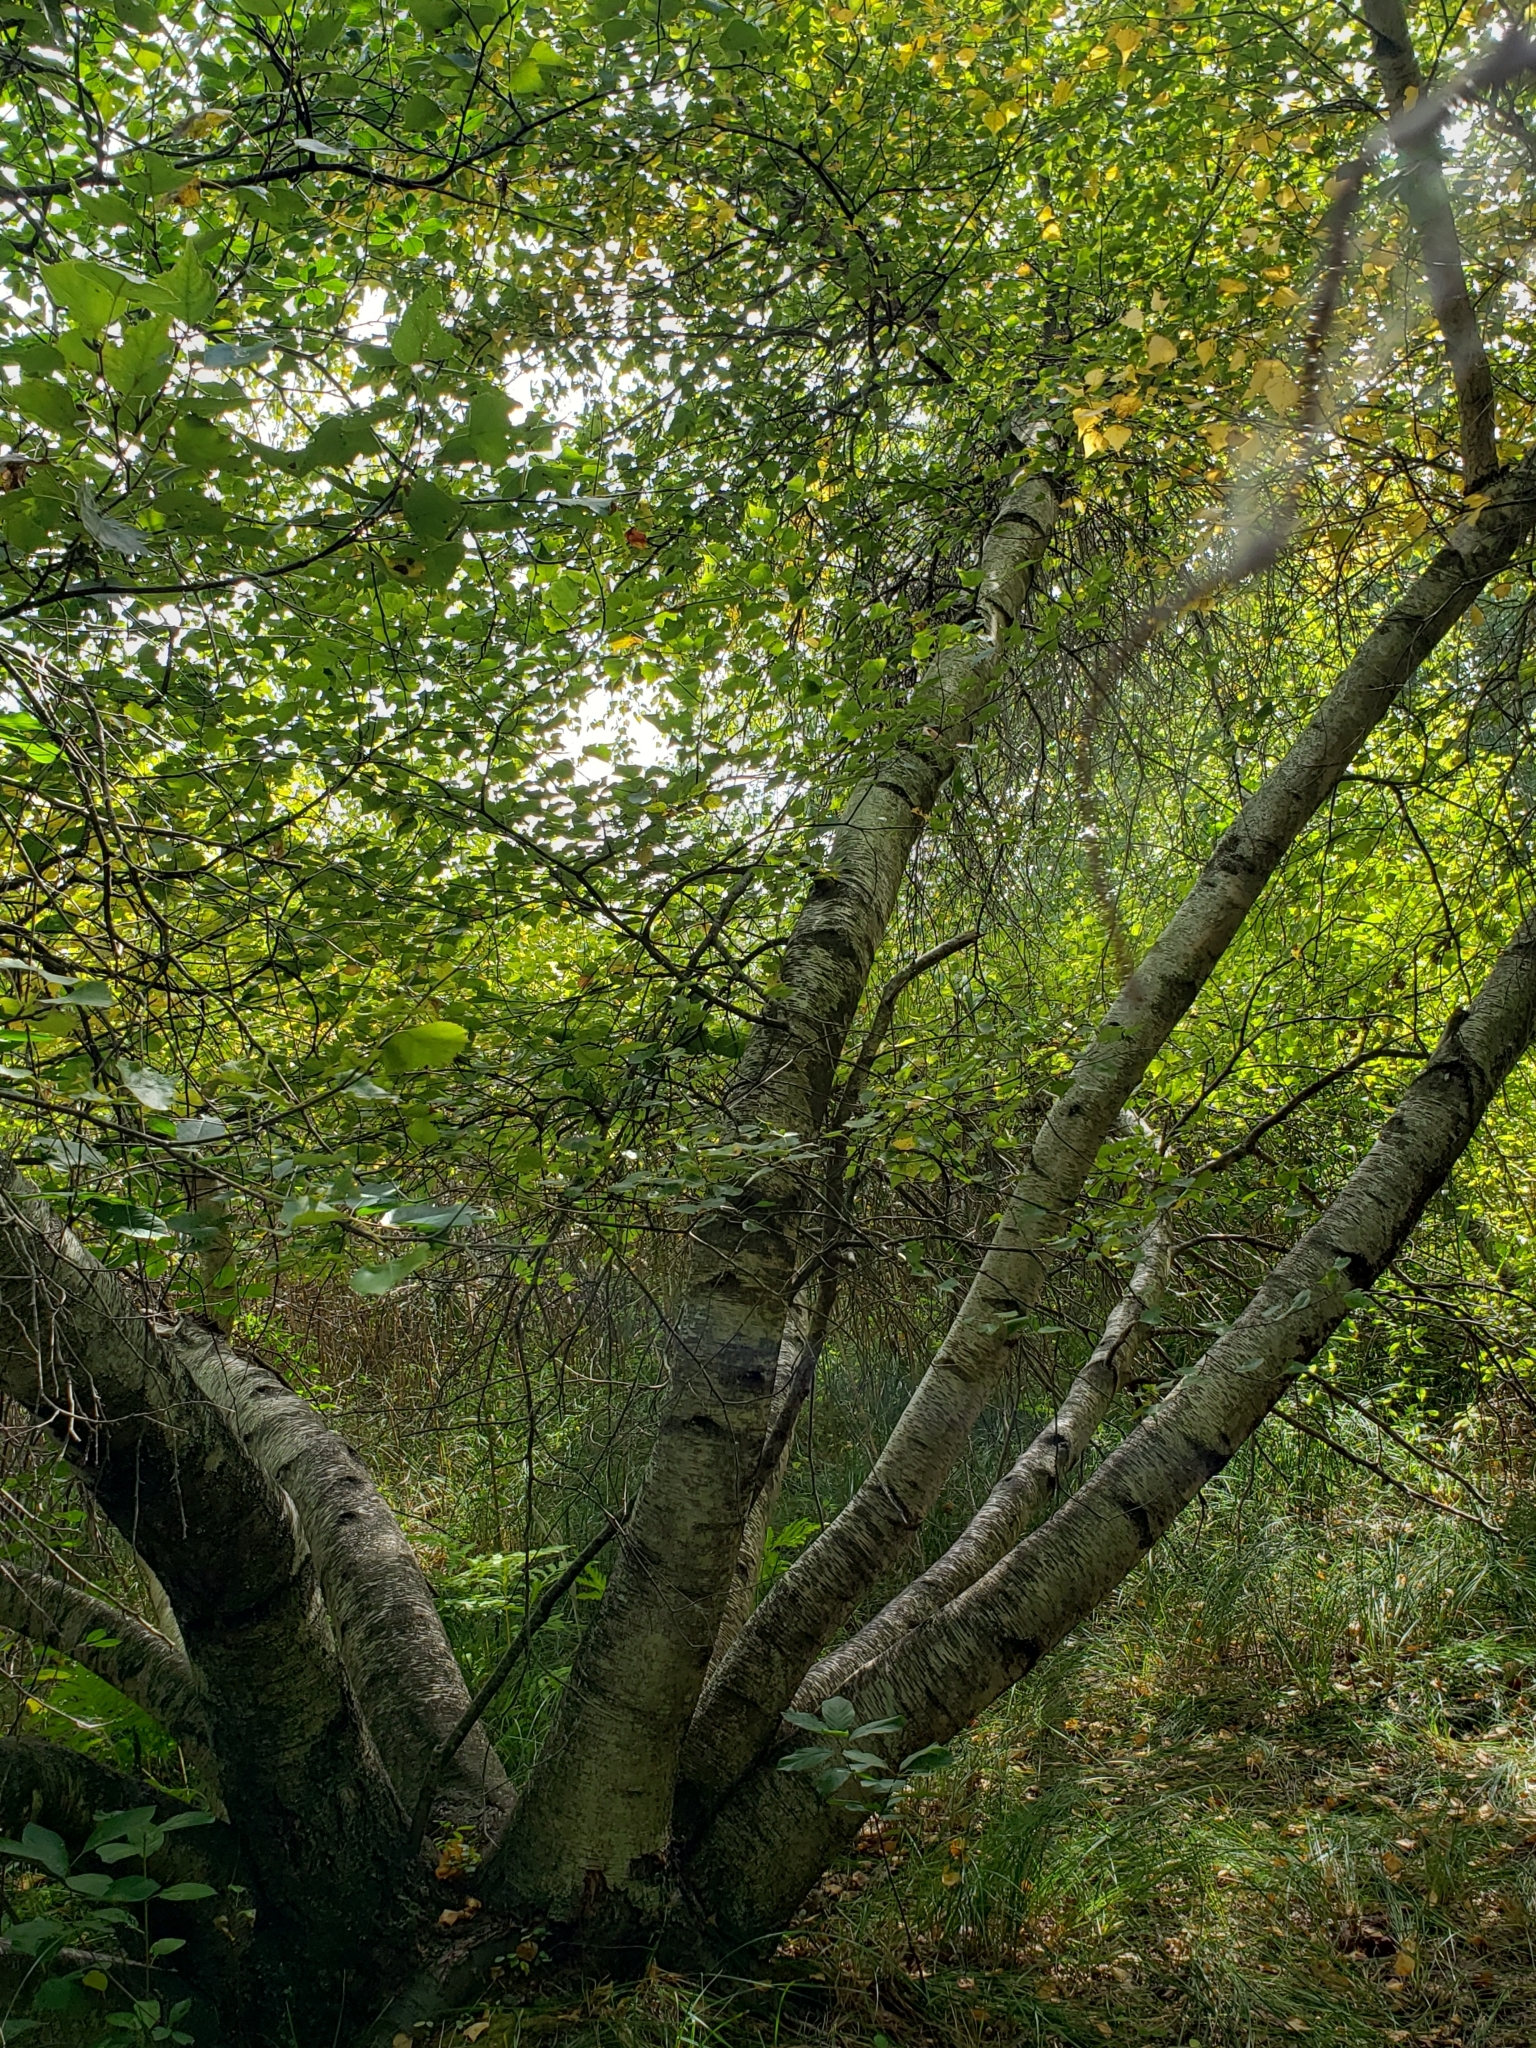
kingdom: Plantae
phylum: Tracheophyta
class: Magnoliopsida
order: Fagales
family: Betulaceae
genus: Betula
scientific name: Betula populifolia
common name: Fire birch
